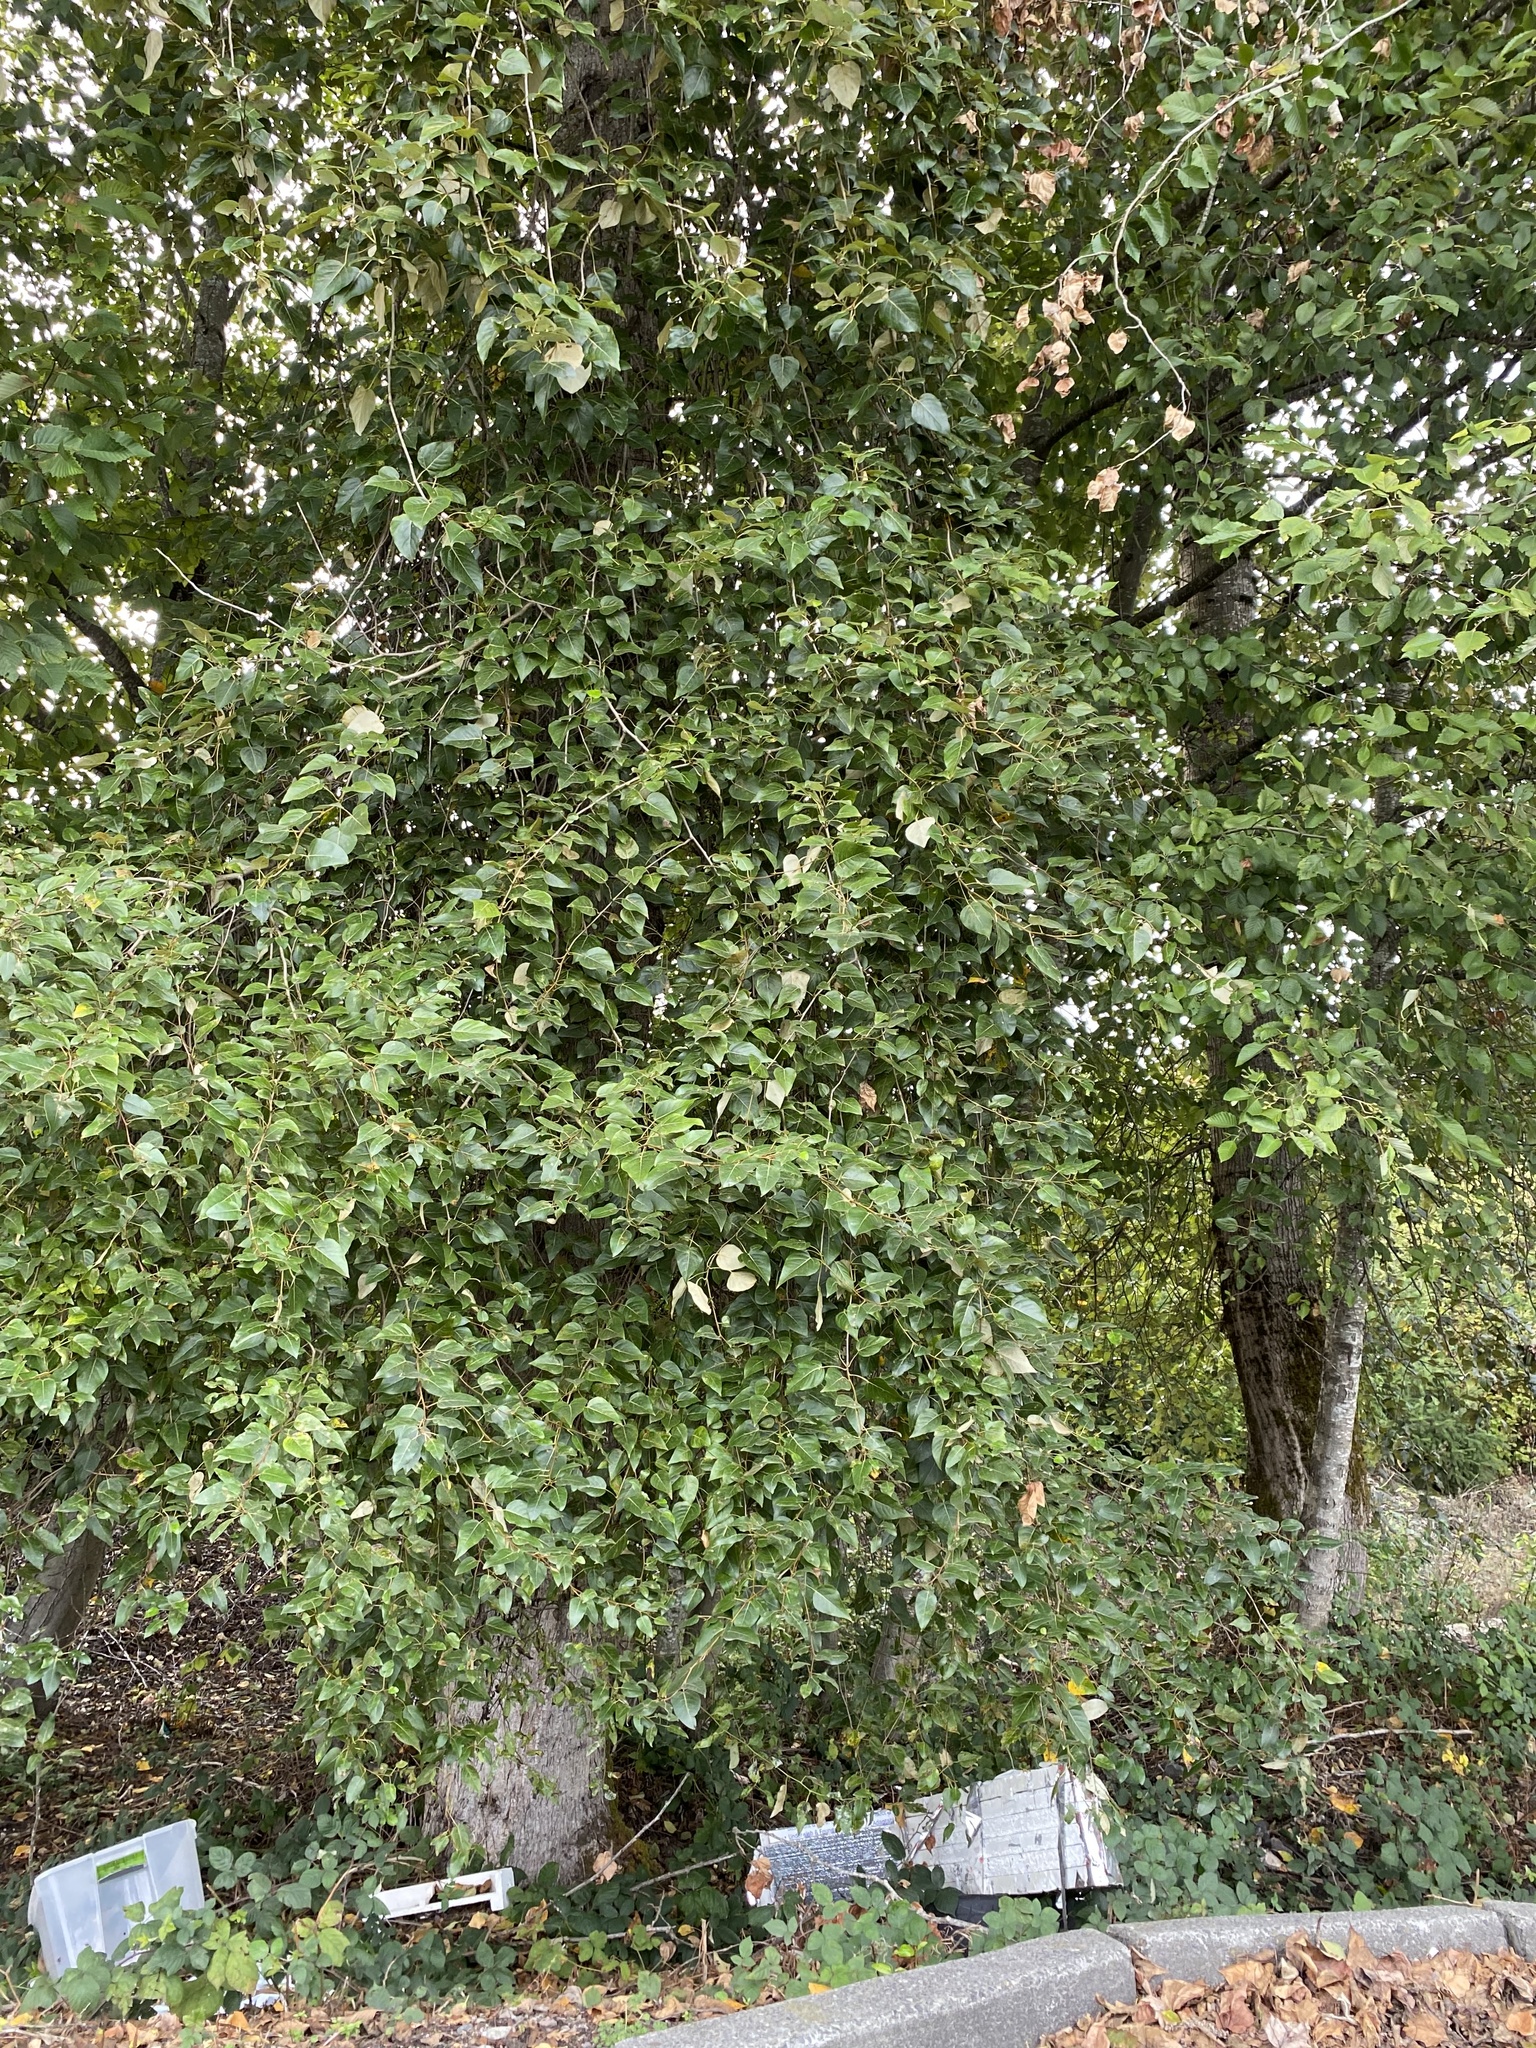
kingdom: Plantae
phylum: Tracheophyta
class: Magnoliopsida
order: Malpighiales
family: Salicaceae
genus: Populus
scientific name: Populus trichocarpa
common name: Black cottonwood
